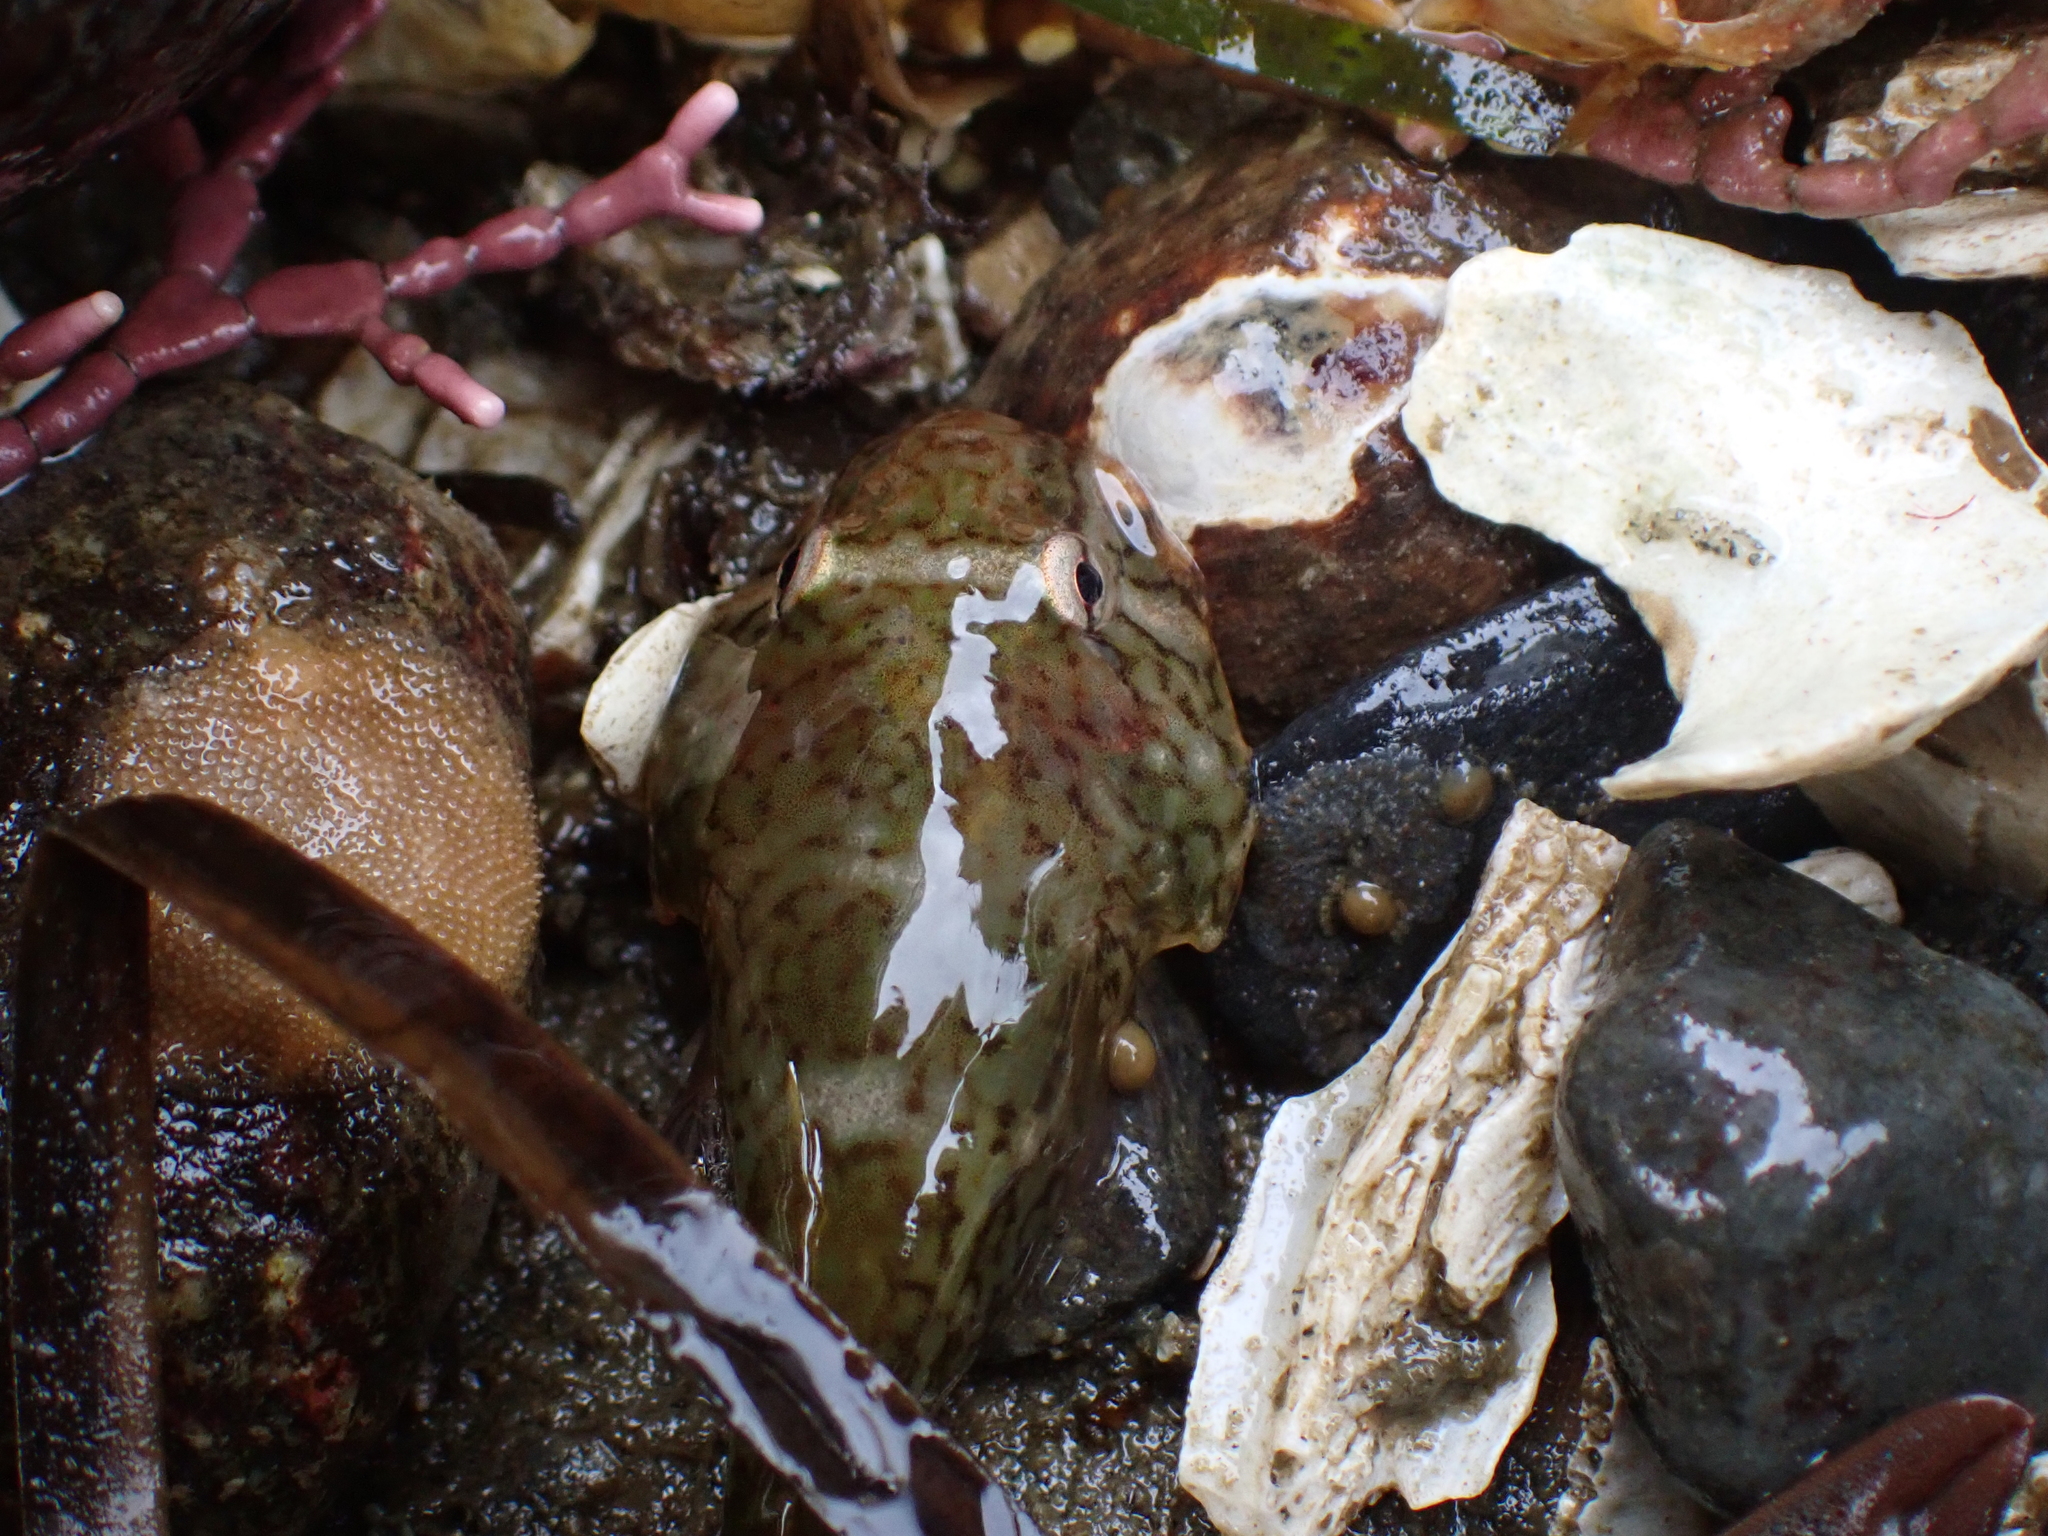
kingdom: Animalia
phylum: Chordata
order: Gobiesociformes
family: Gobiesocidae
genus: Gobiesox
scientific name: Gobiesox maeandricus
